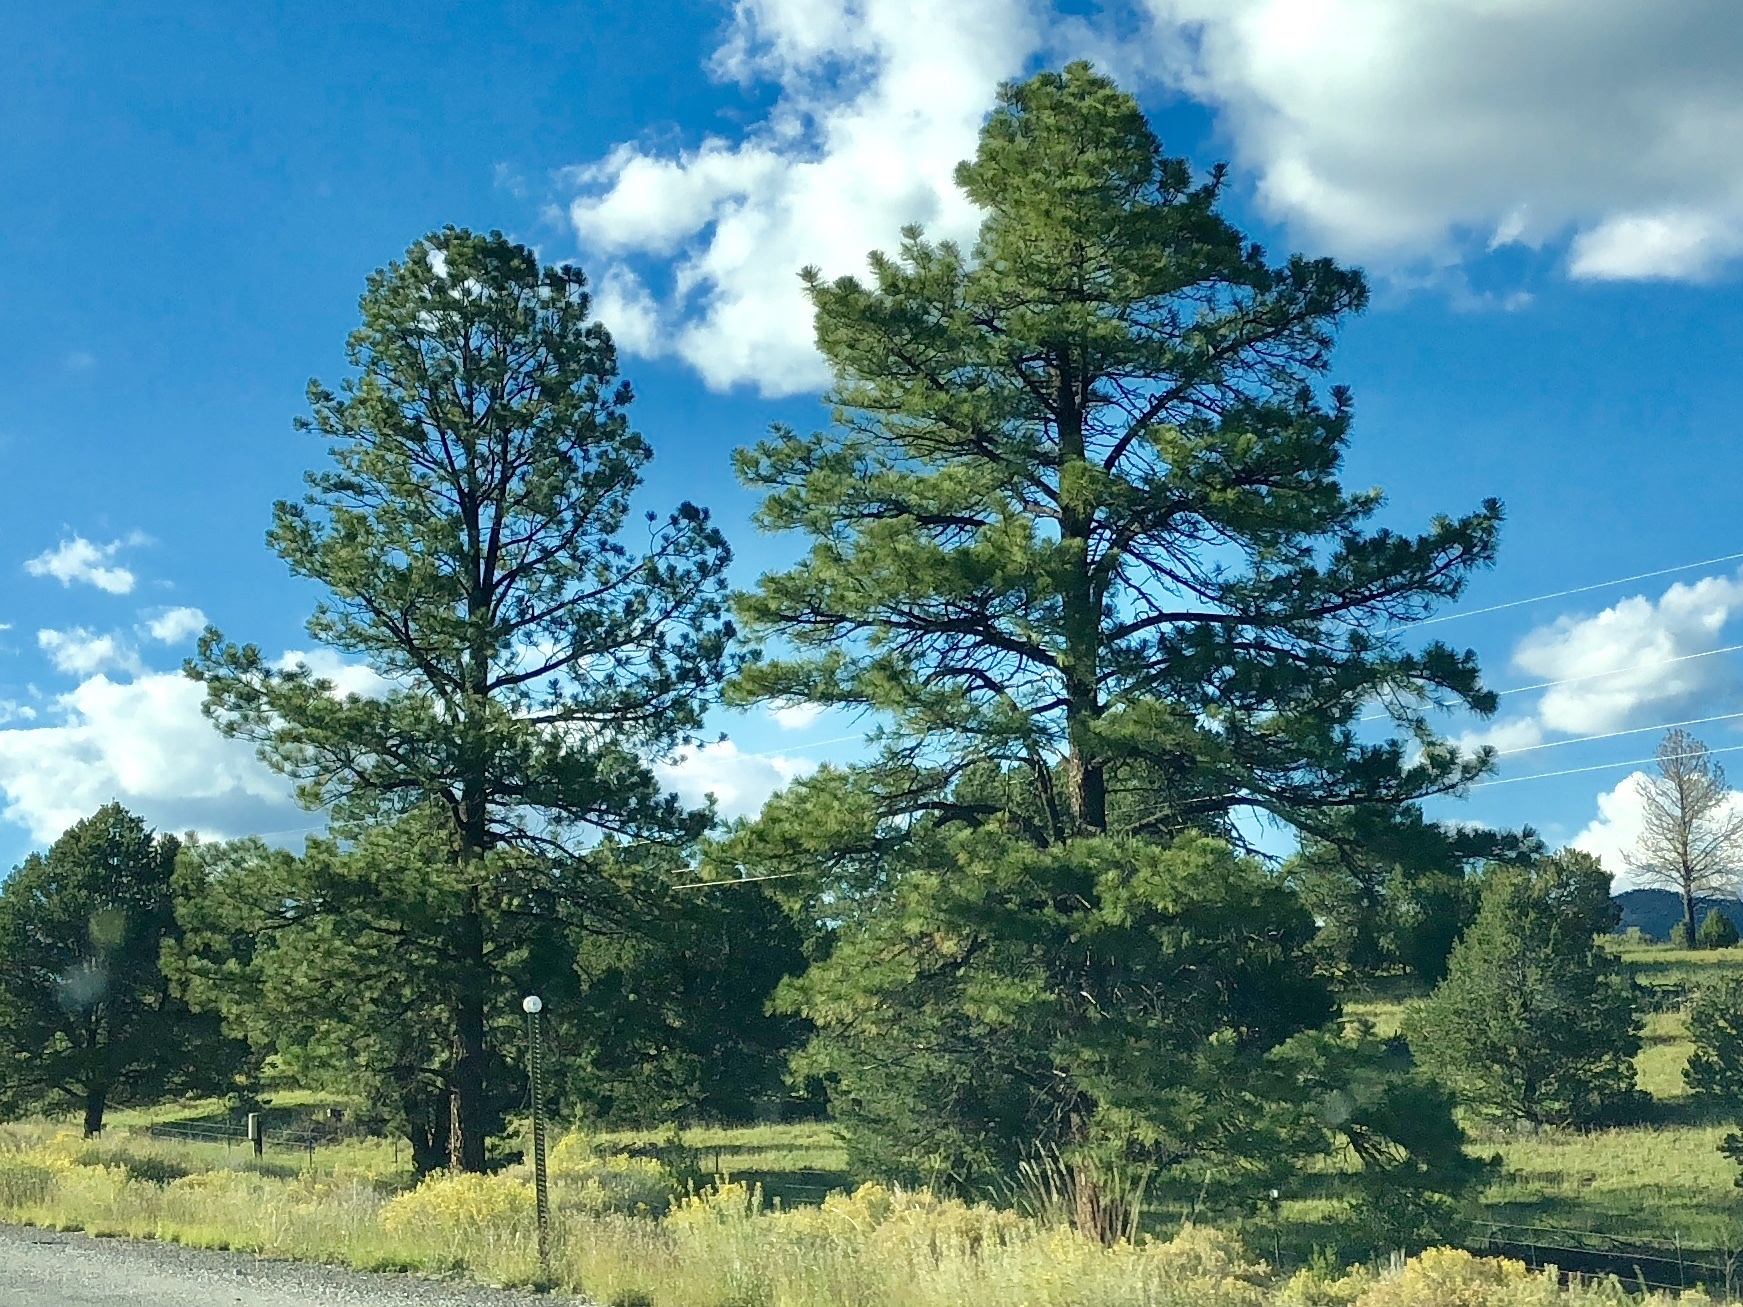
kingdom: Plantae
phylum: Tracheophyta
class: Pinopsida
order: Pinales
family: Pinaceae
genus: Pinus
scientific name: Pinus ponderosa
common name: Western yellow-pine
